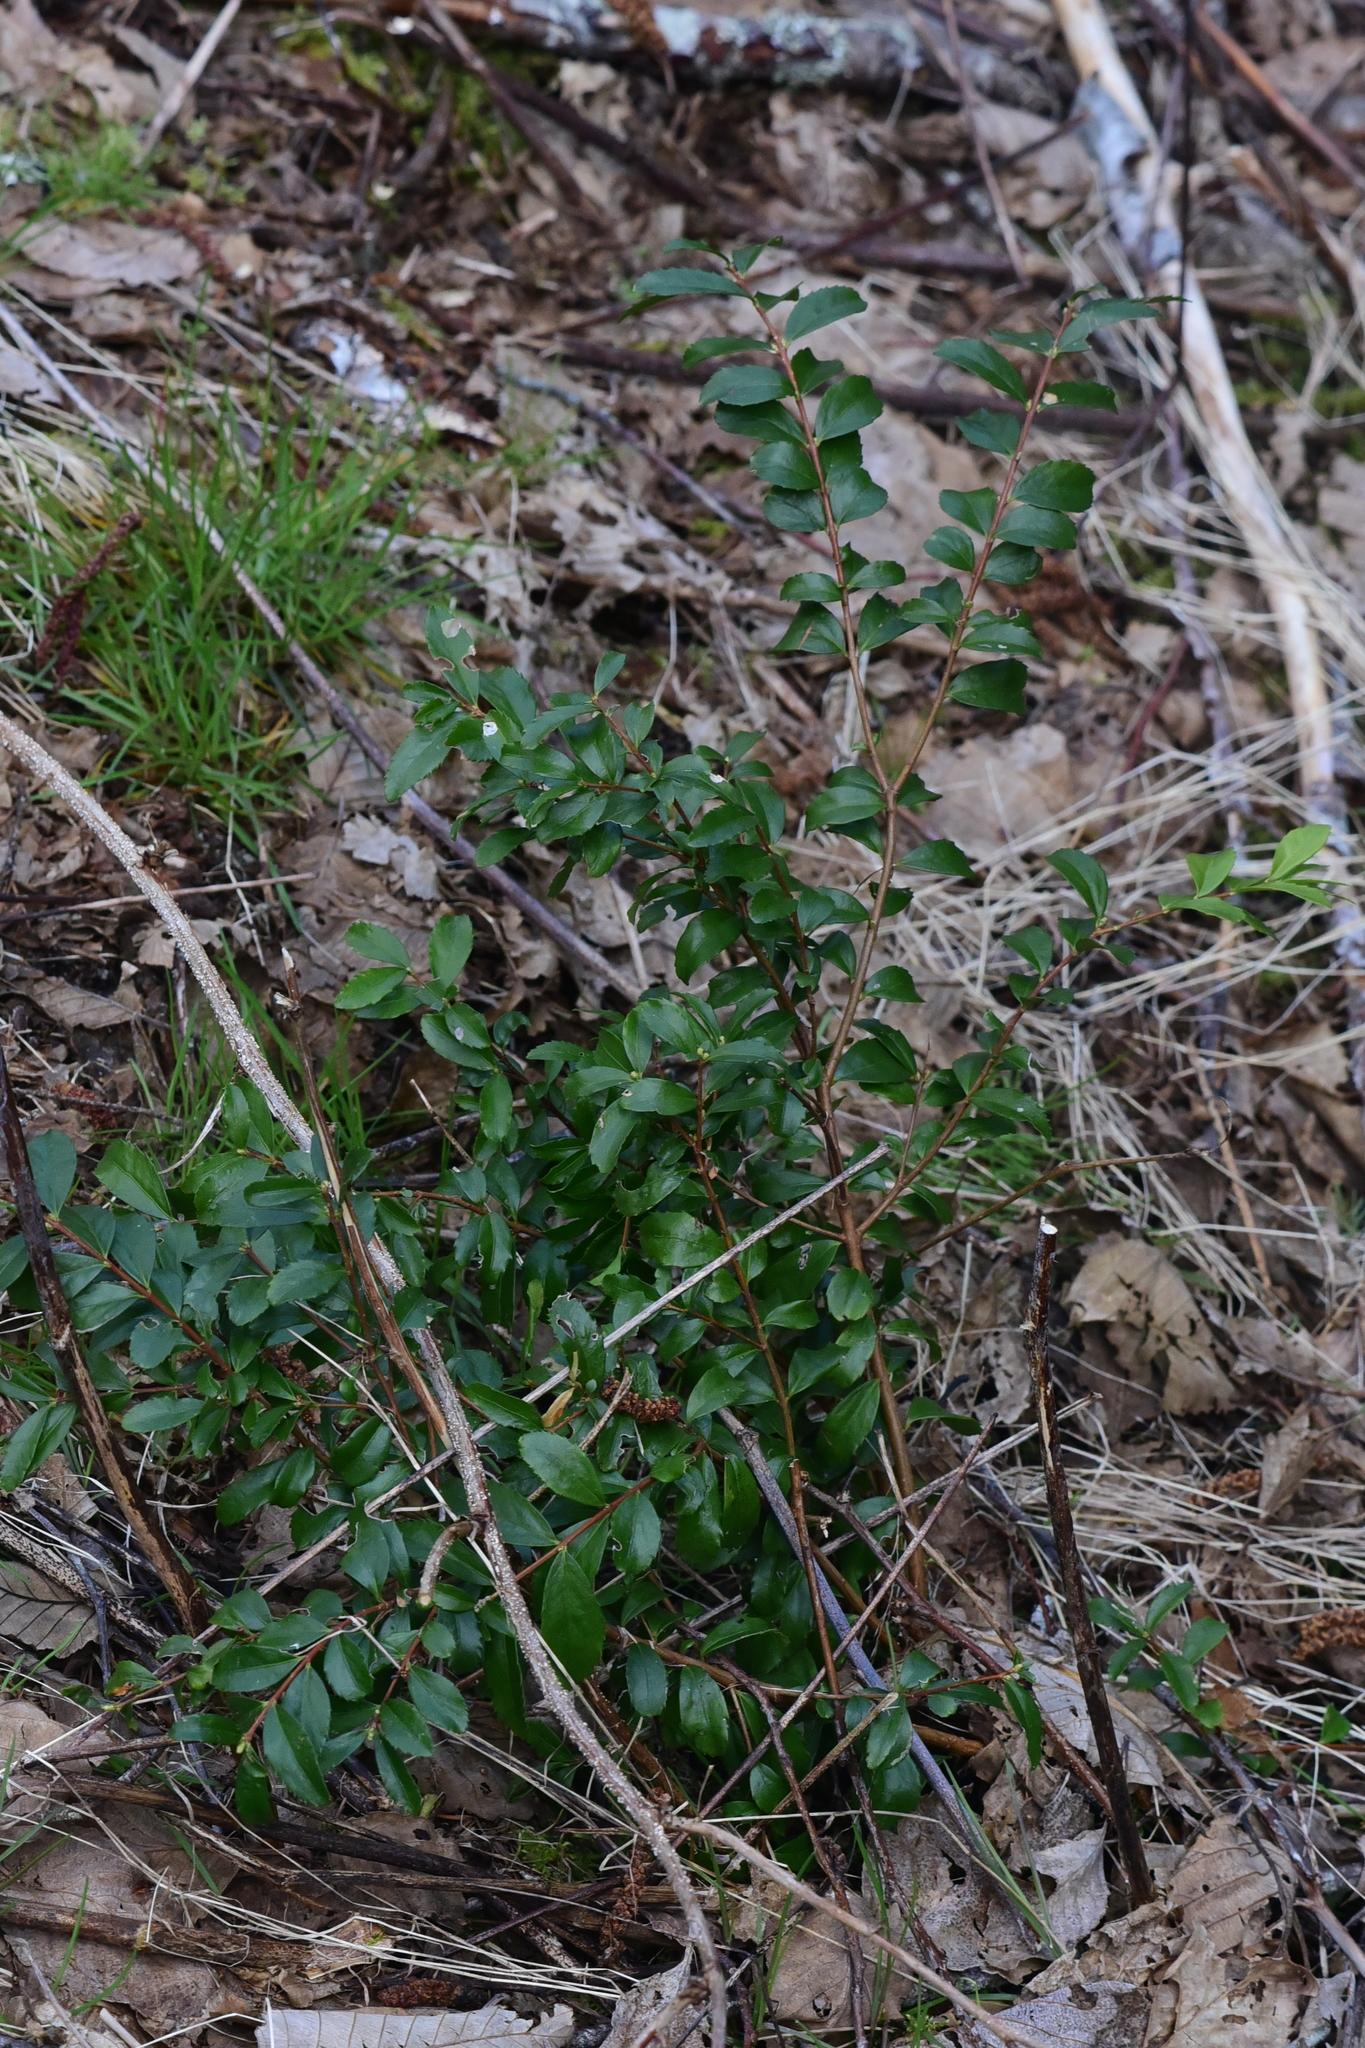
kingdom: Plantae
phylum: Tracheophyta
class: Magnoliopsida
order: Celastrales
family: Celastraceae
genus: Paxistima
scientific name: Paxistima myrsinites
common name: Mountain-lover
